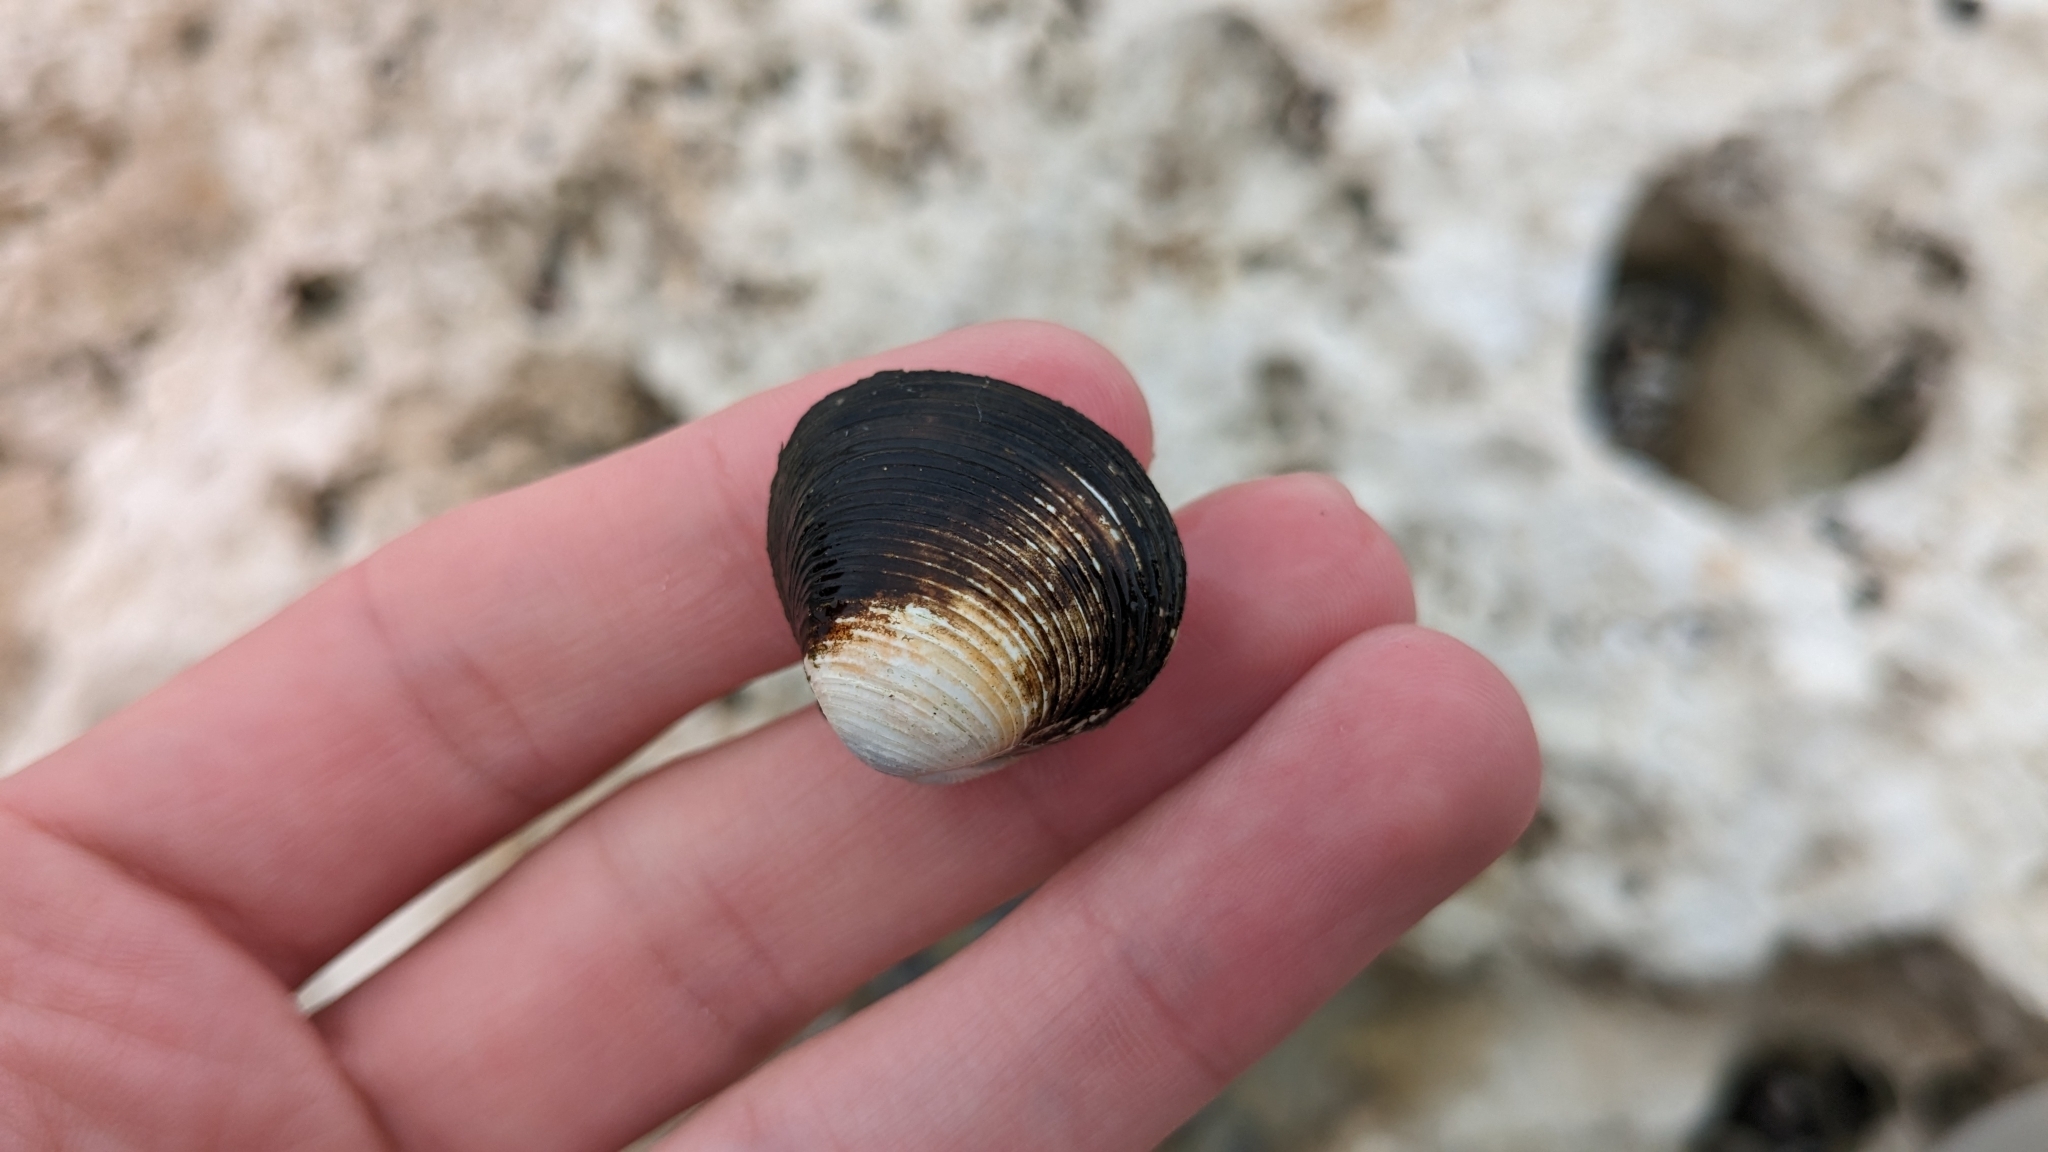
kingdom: Animalia
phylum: Mollusca
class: Bivalvia
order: Venerida
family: Cyrenidae
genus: Corbicula
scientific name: Corbicula fluminea
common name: Asian clam
